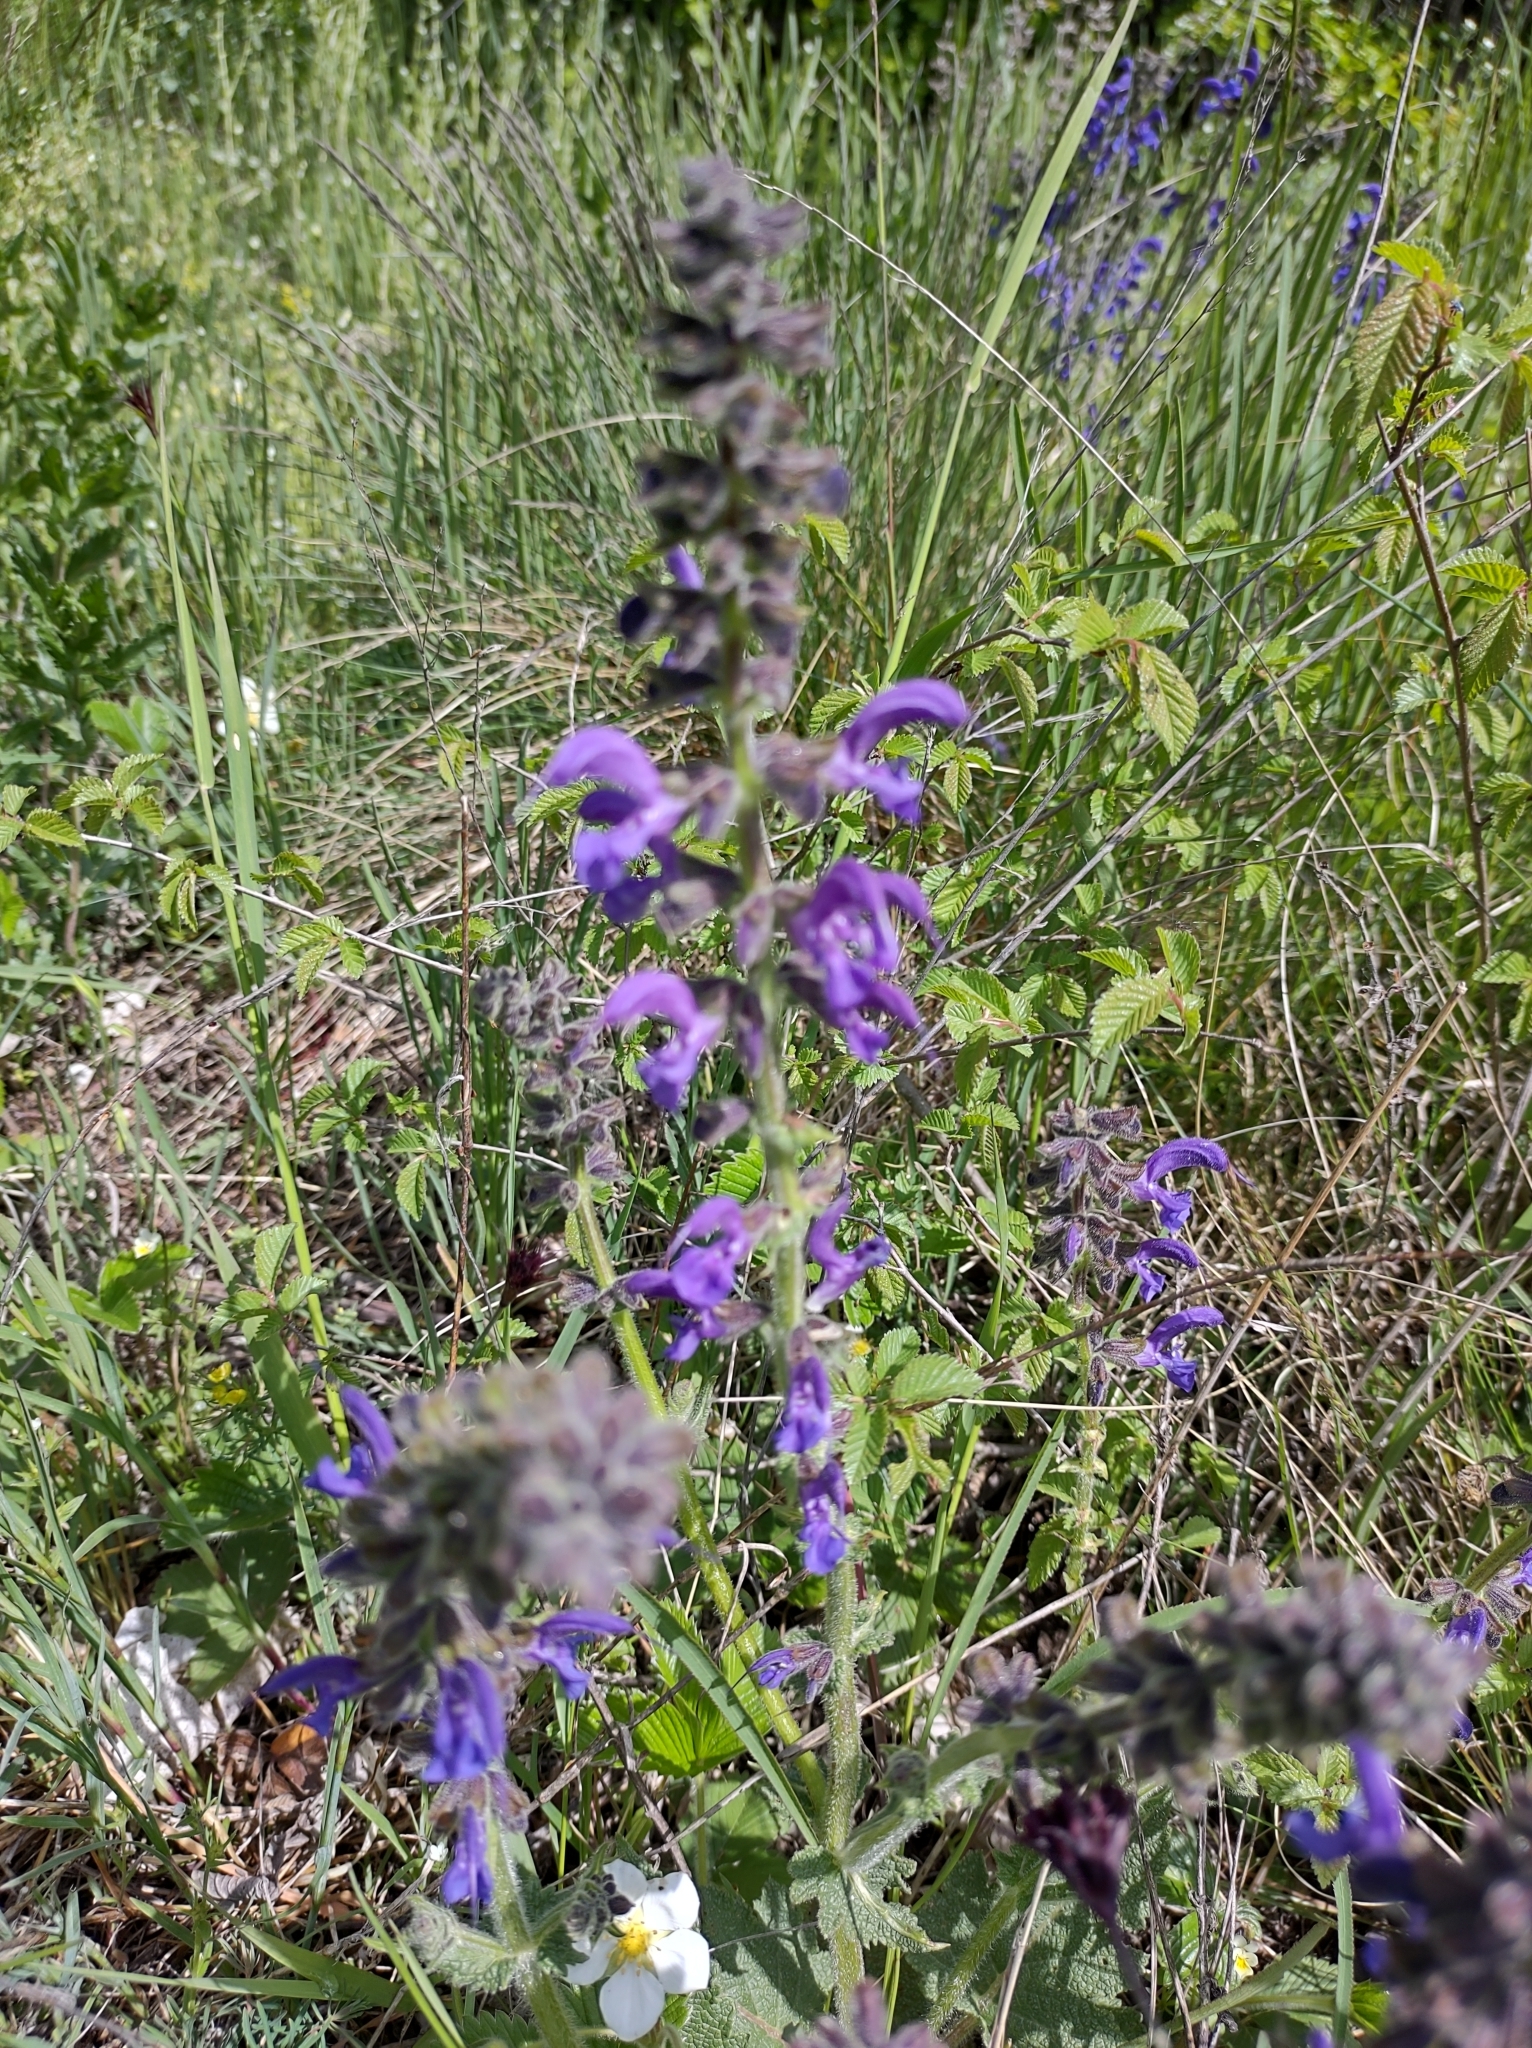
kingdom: Plantae
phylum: Tracheophyta
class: Magnoliopsida
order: Lamiales
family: Lamiaceae
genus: Salvia
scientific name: Salvia pratensis
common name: Meadow sage
